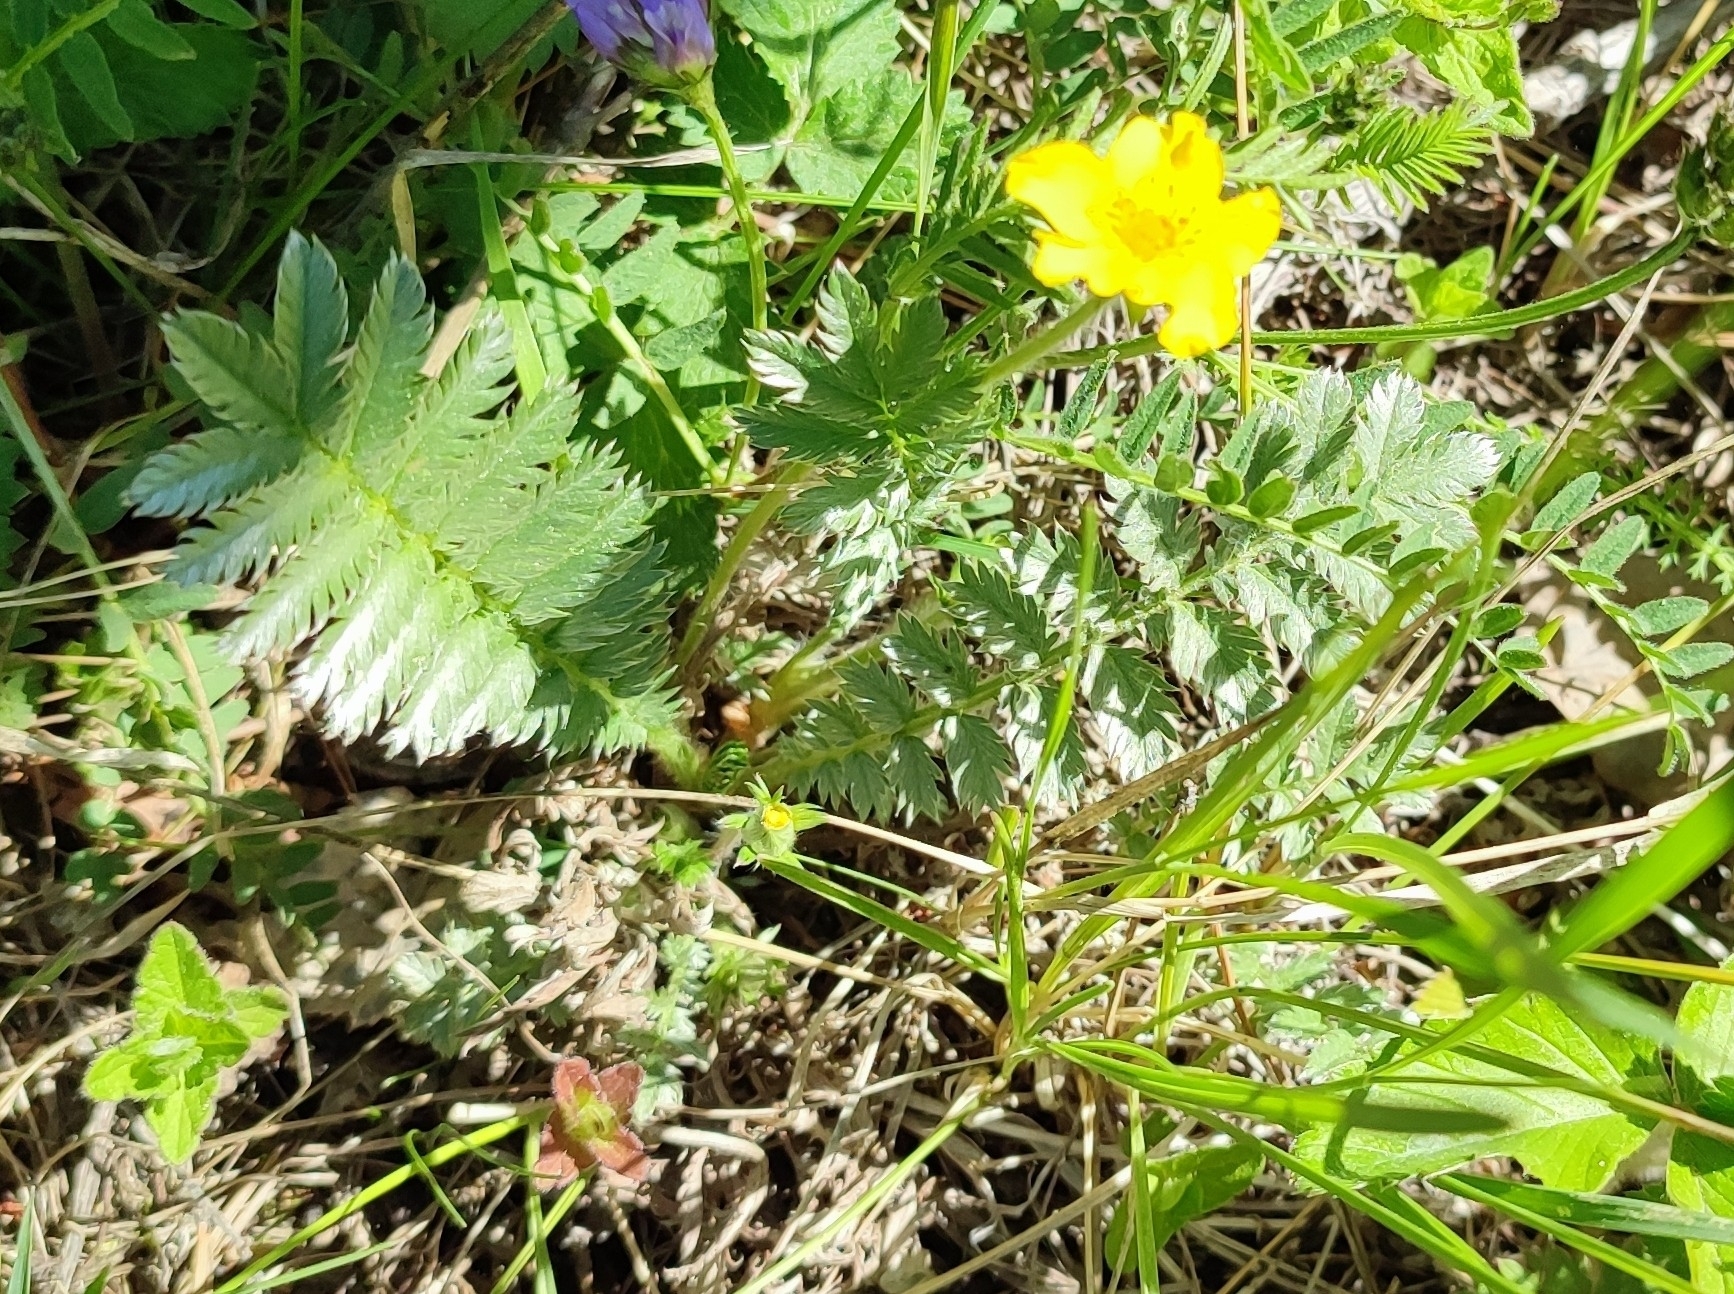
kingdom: Plantae
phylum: Tracheophyta
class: Magnoliopsida
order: Rosales
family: Rosaceae
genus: Argentina
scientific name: Argentina anserina
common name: Common silverweed
